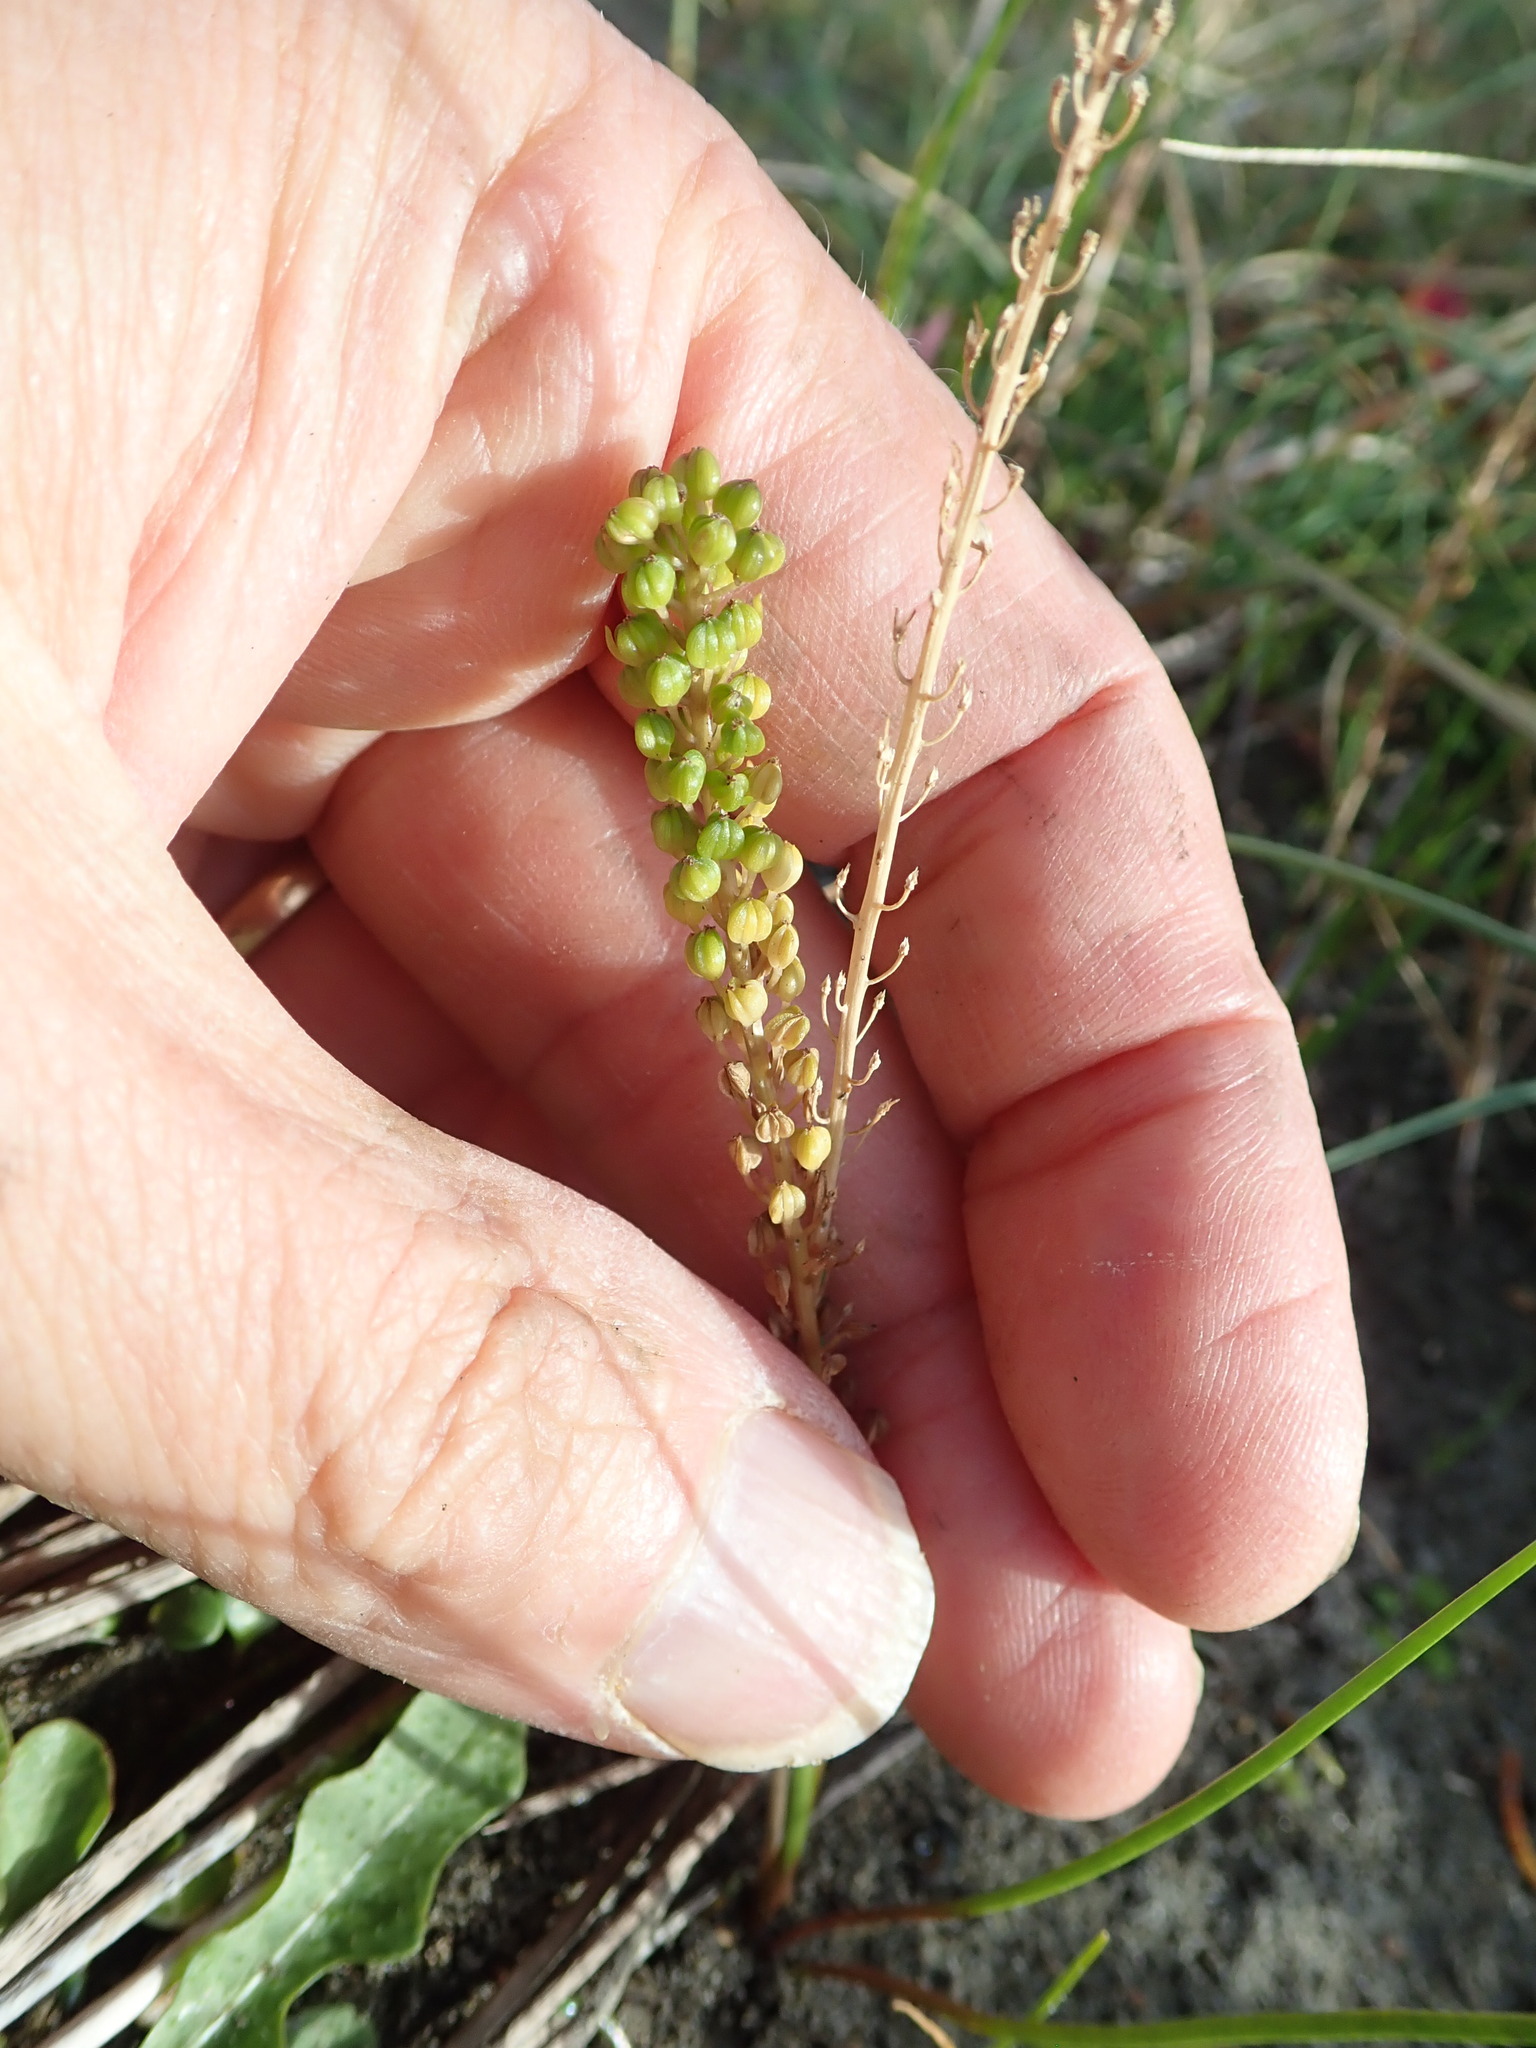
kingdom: Plantae
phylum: Tracheophyta
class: Liliopsida
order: Alismatales
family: Juncaginaceae
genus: Triglochin
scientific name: Triglochin striata
